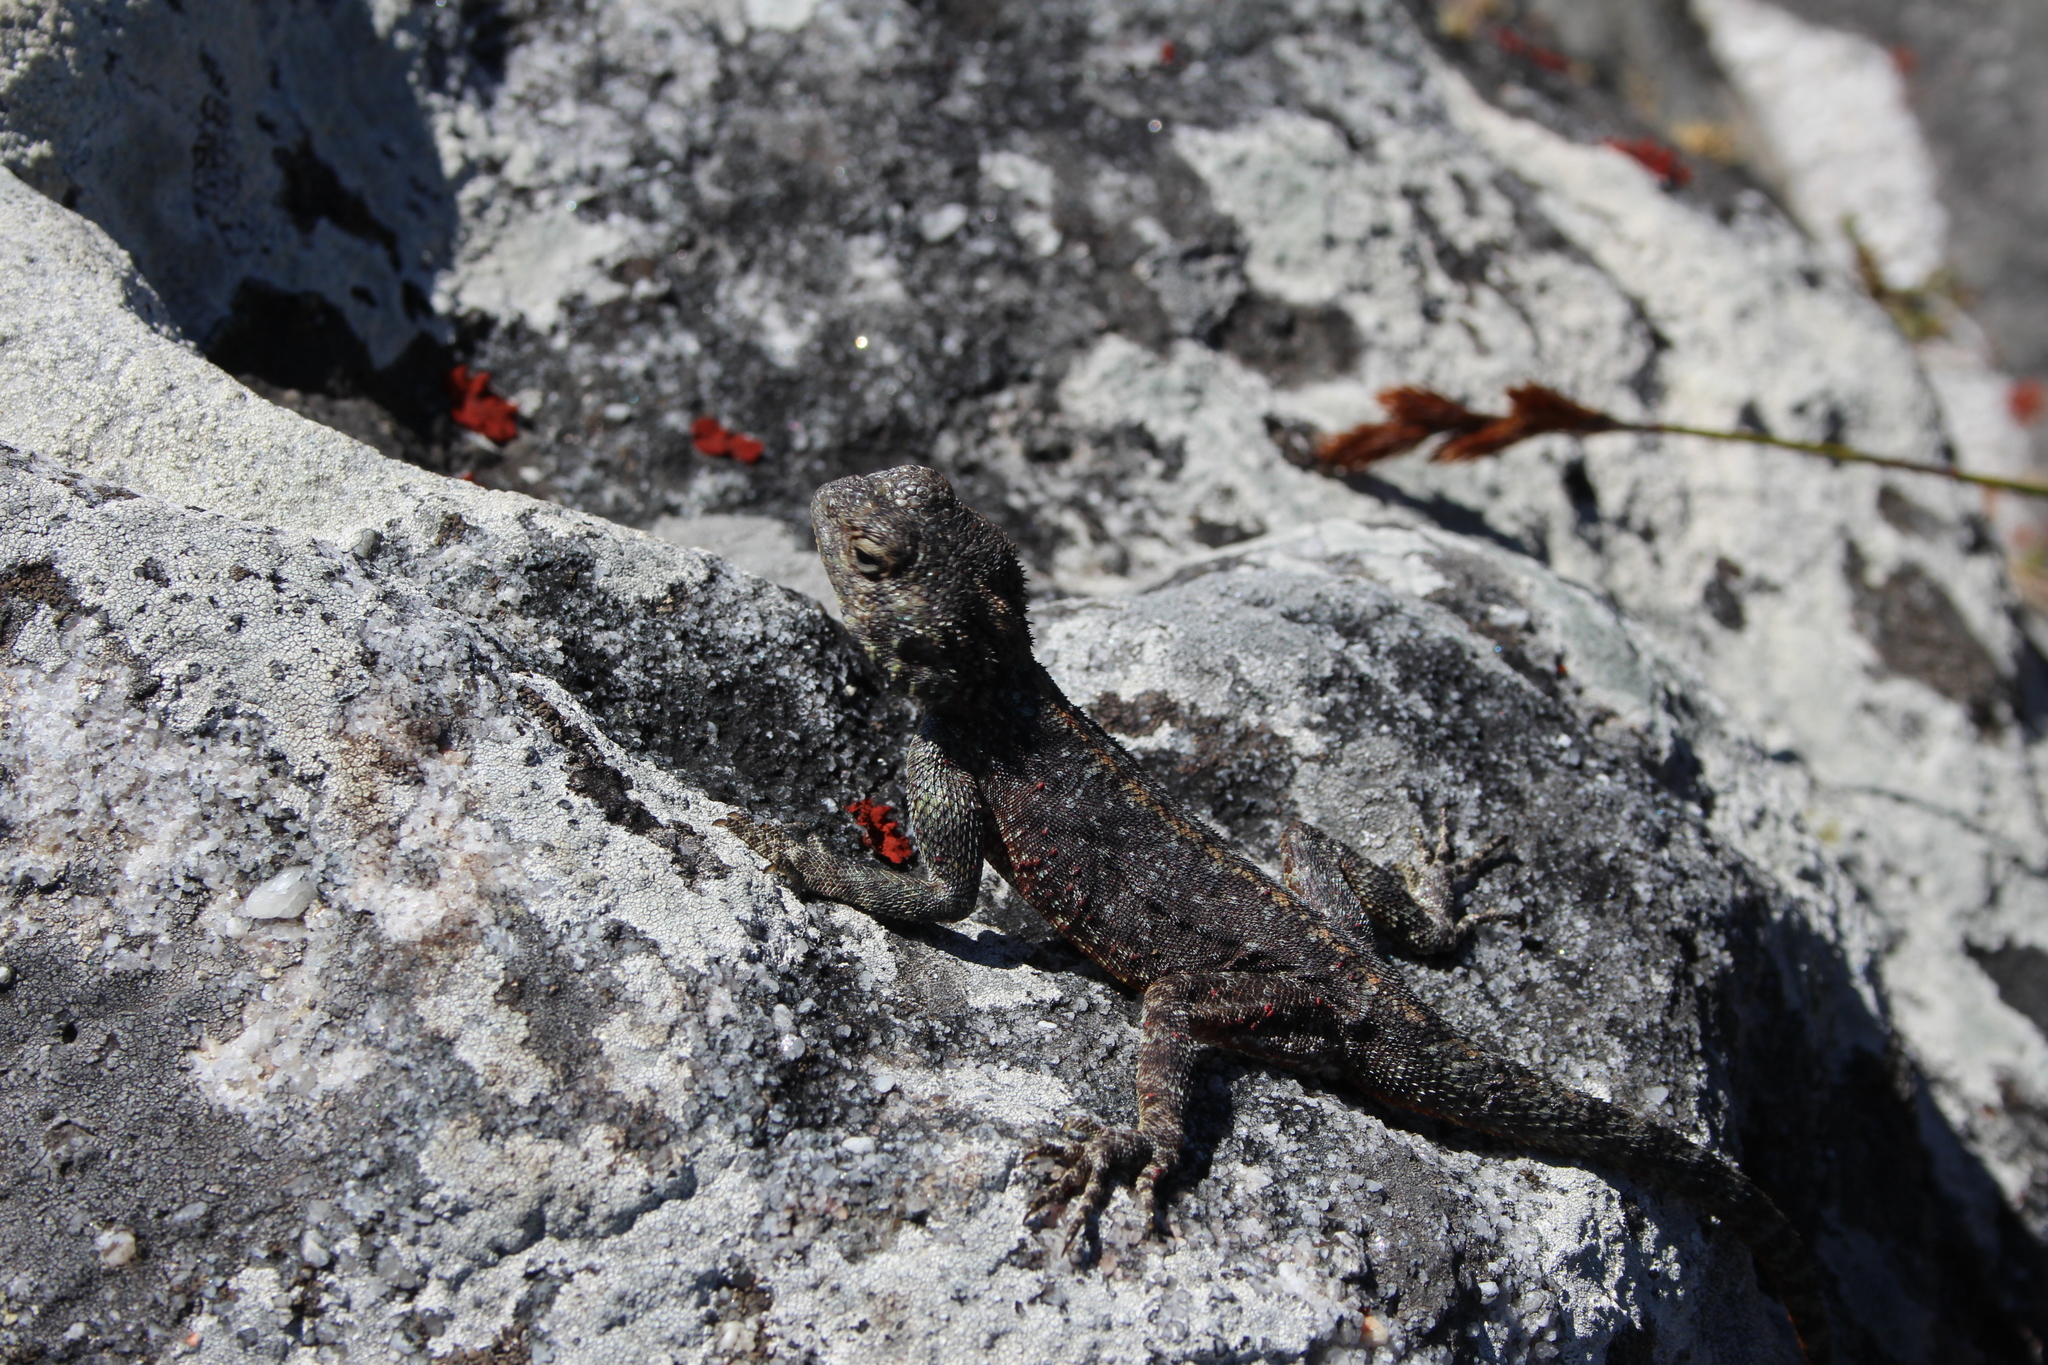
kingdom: Animalia
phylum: Chordata
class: Squamata
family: Agamidae
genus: Agama
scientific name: Agama atra
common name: Southern african rock agama
